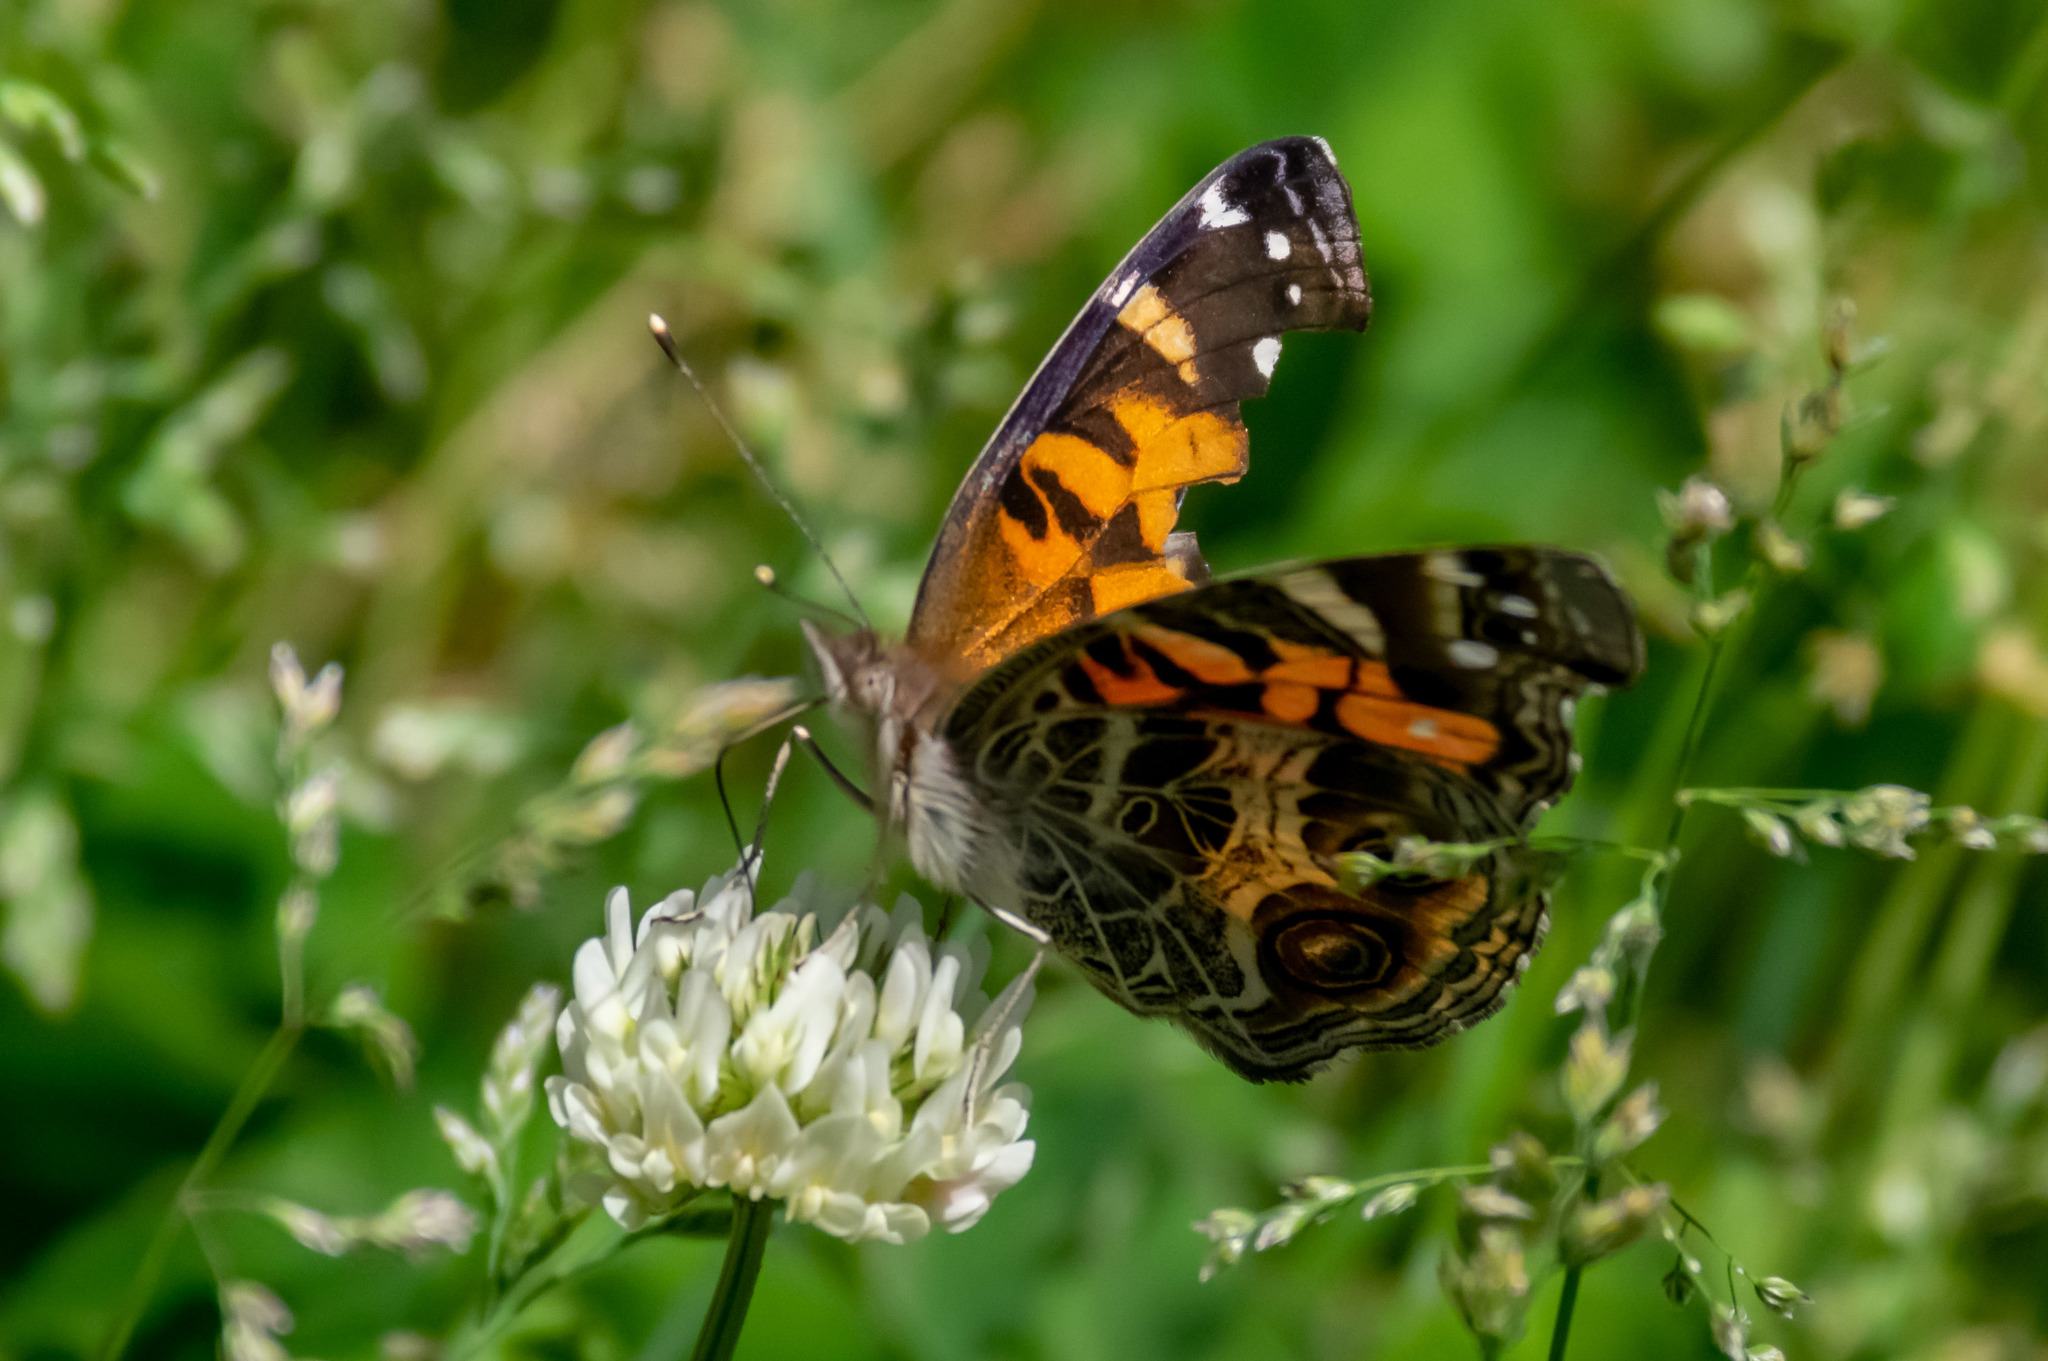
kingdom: Animalia
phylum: Arthropoda
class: Insecta
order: Lepidoptera
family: Nymphalidae
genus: Vanessa
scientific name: Vanessa virginiensis
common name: American lady
